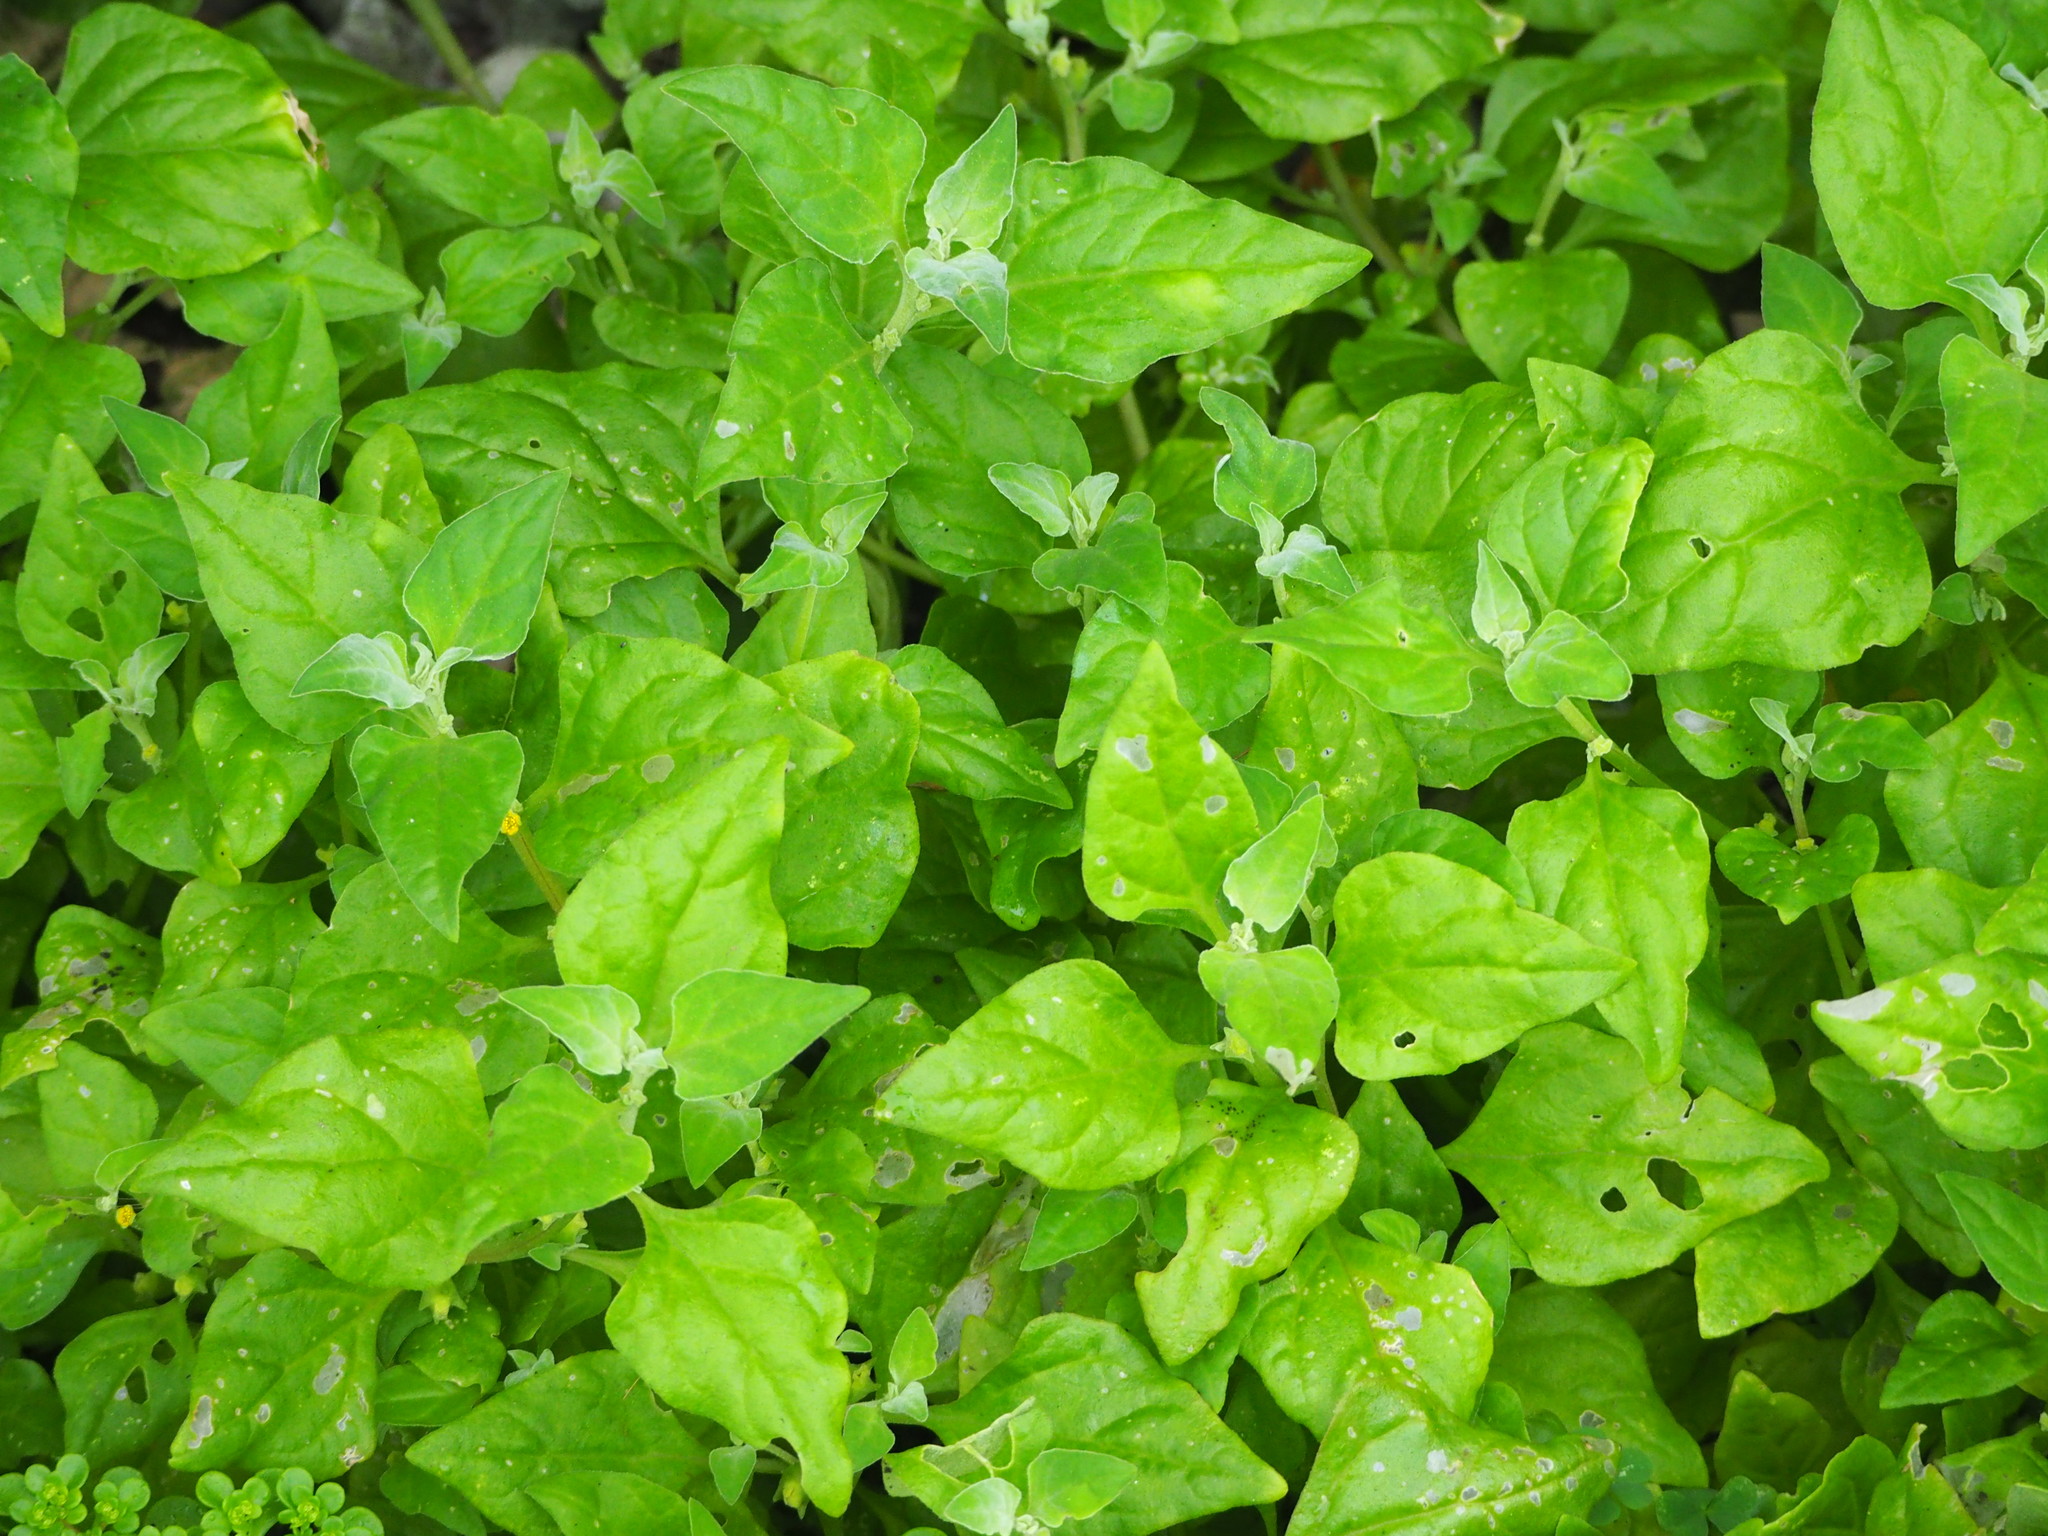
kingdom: Plantae
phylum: Tracheophyta
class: Magnoliopsida
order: Caryophyllales
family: Aizoaceae
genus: Tetragonia
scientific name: Tetragonia tetragonoides
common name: New zealand-spinach
